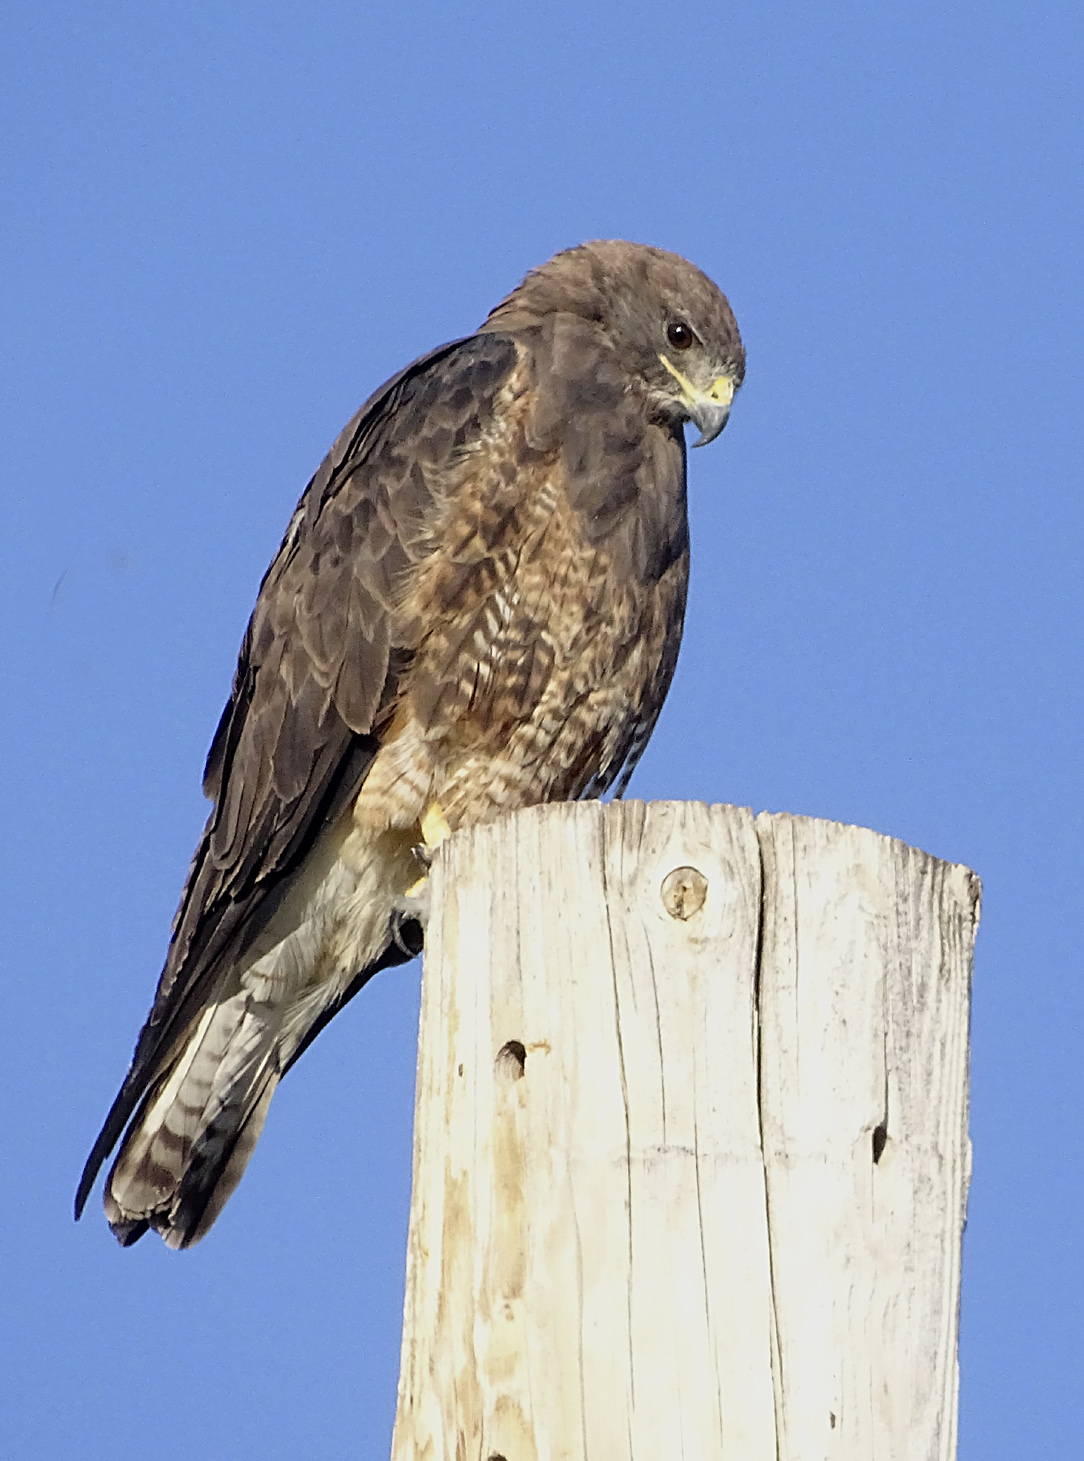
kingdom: Animalia
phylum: Chordata
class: Aves
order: Accipitriformes
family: Accipitridae
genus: Buteo
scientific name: Buteo swainsoni
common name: Swainson's hawk
